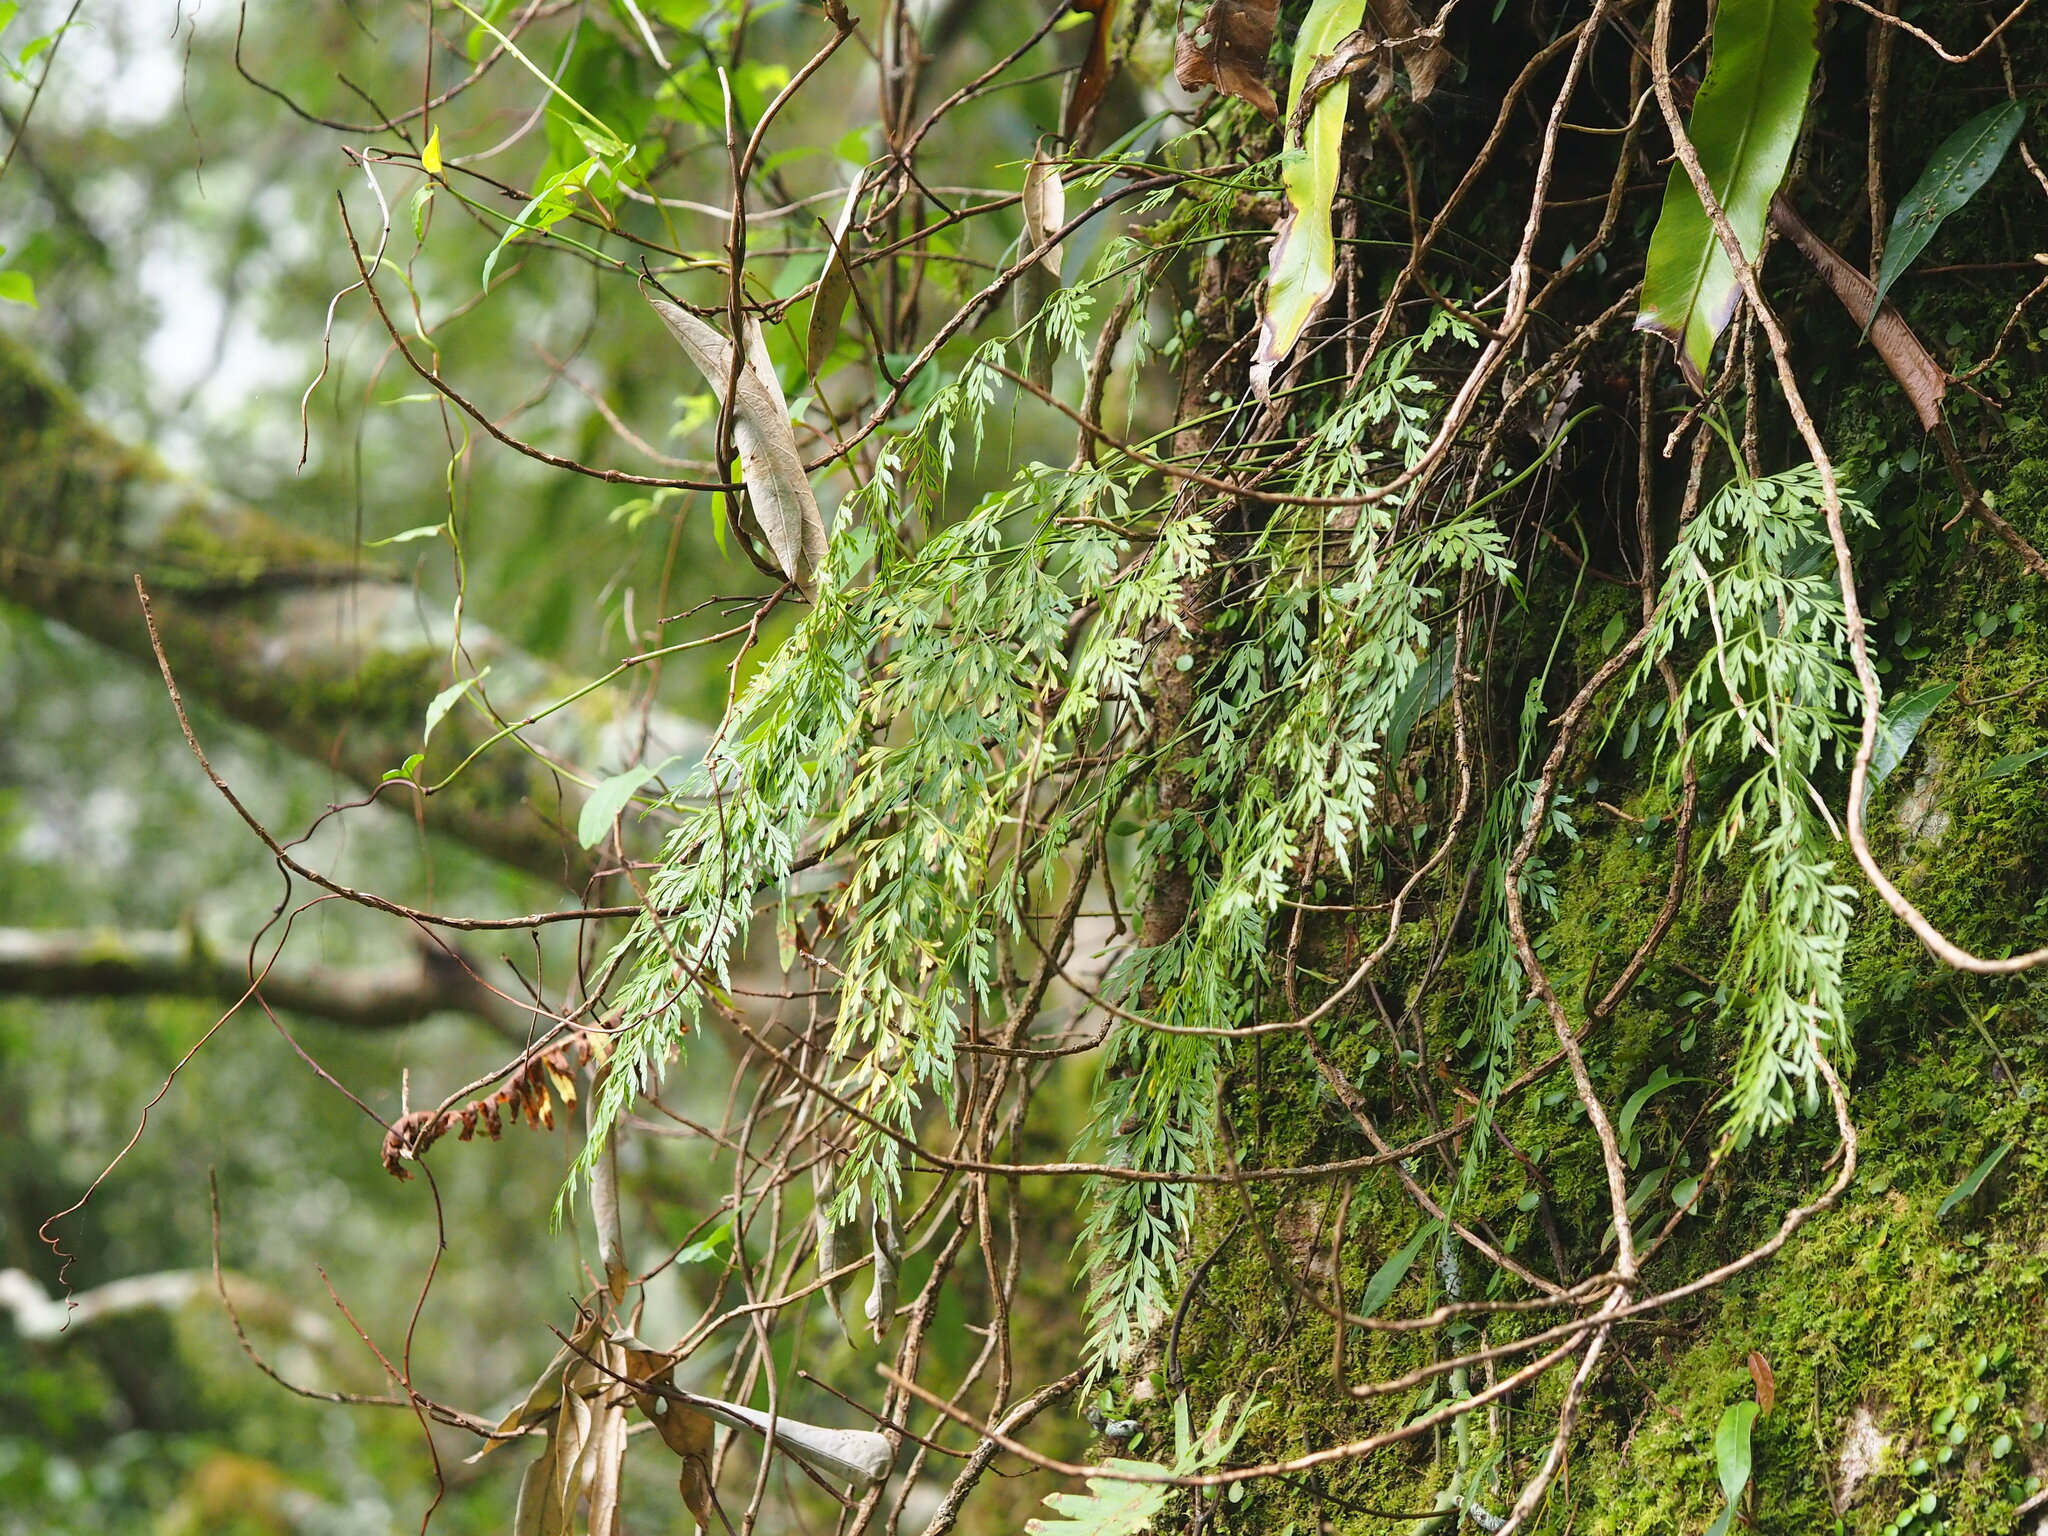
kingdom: Plantae
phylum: Tracheophyta
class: Polypodiopsida
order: Polypodiales
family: Aspleniaceae
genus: Asplenium
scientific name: Asplenium pseudolaserpitiifolium
